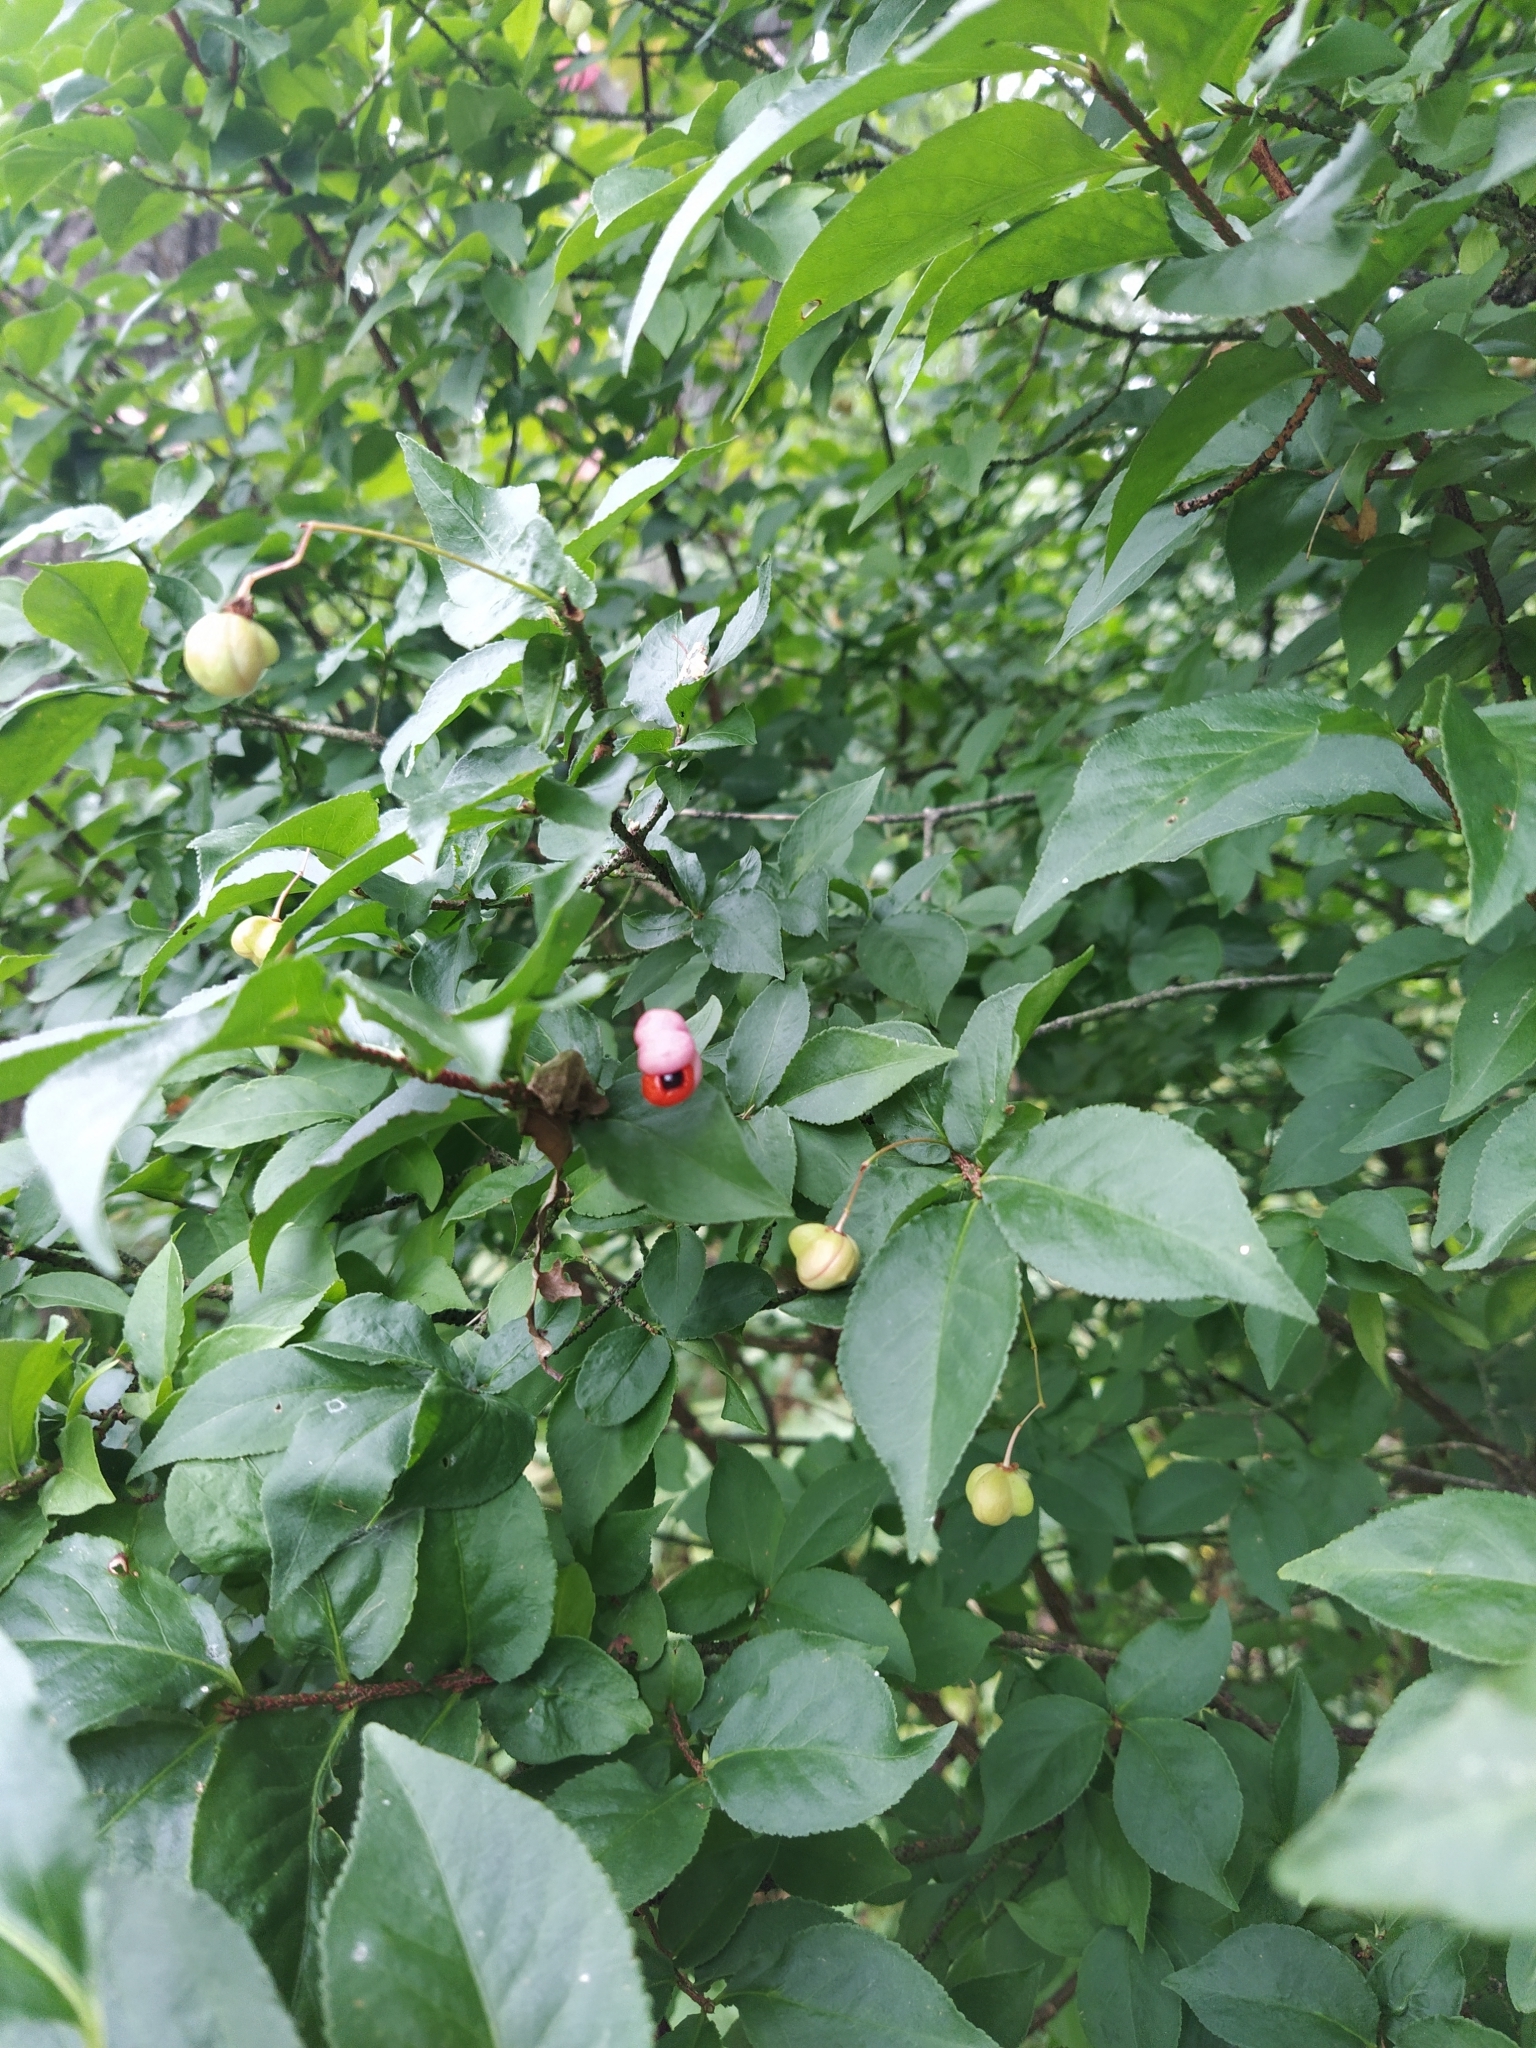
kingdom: Plantae
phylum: Tracheophyta
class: Magnoliopsida
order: Celastrales
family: Celastraceae
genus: Euonymus
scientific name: Euonymus verrucosus
